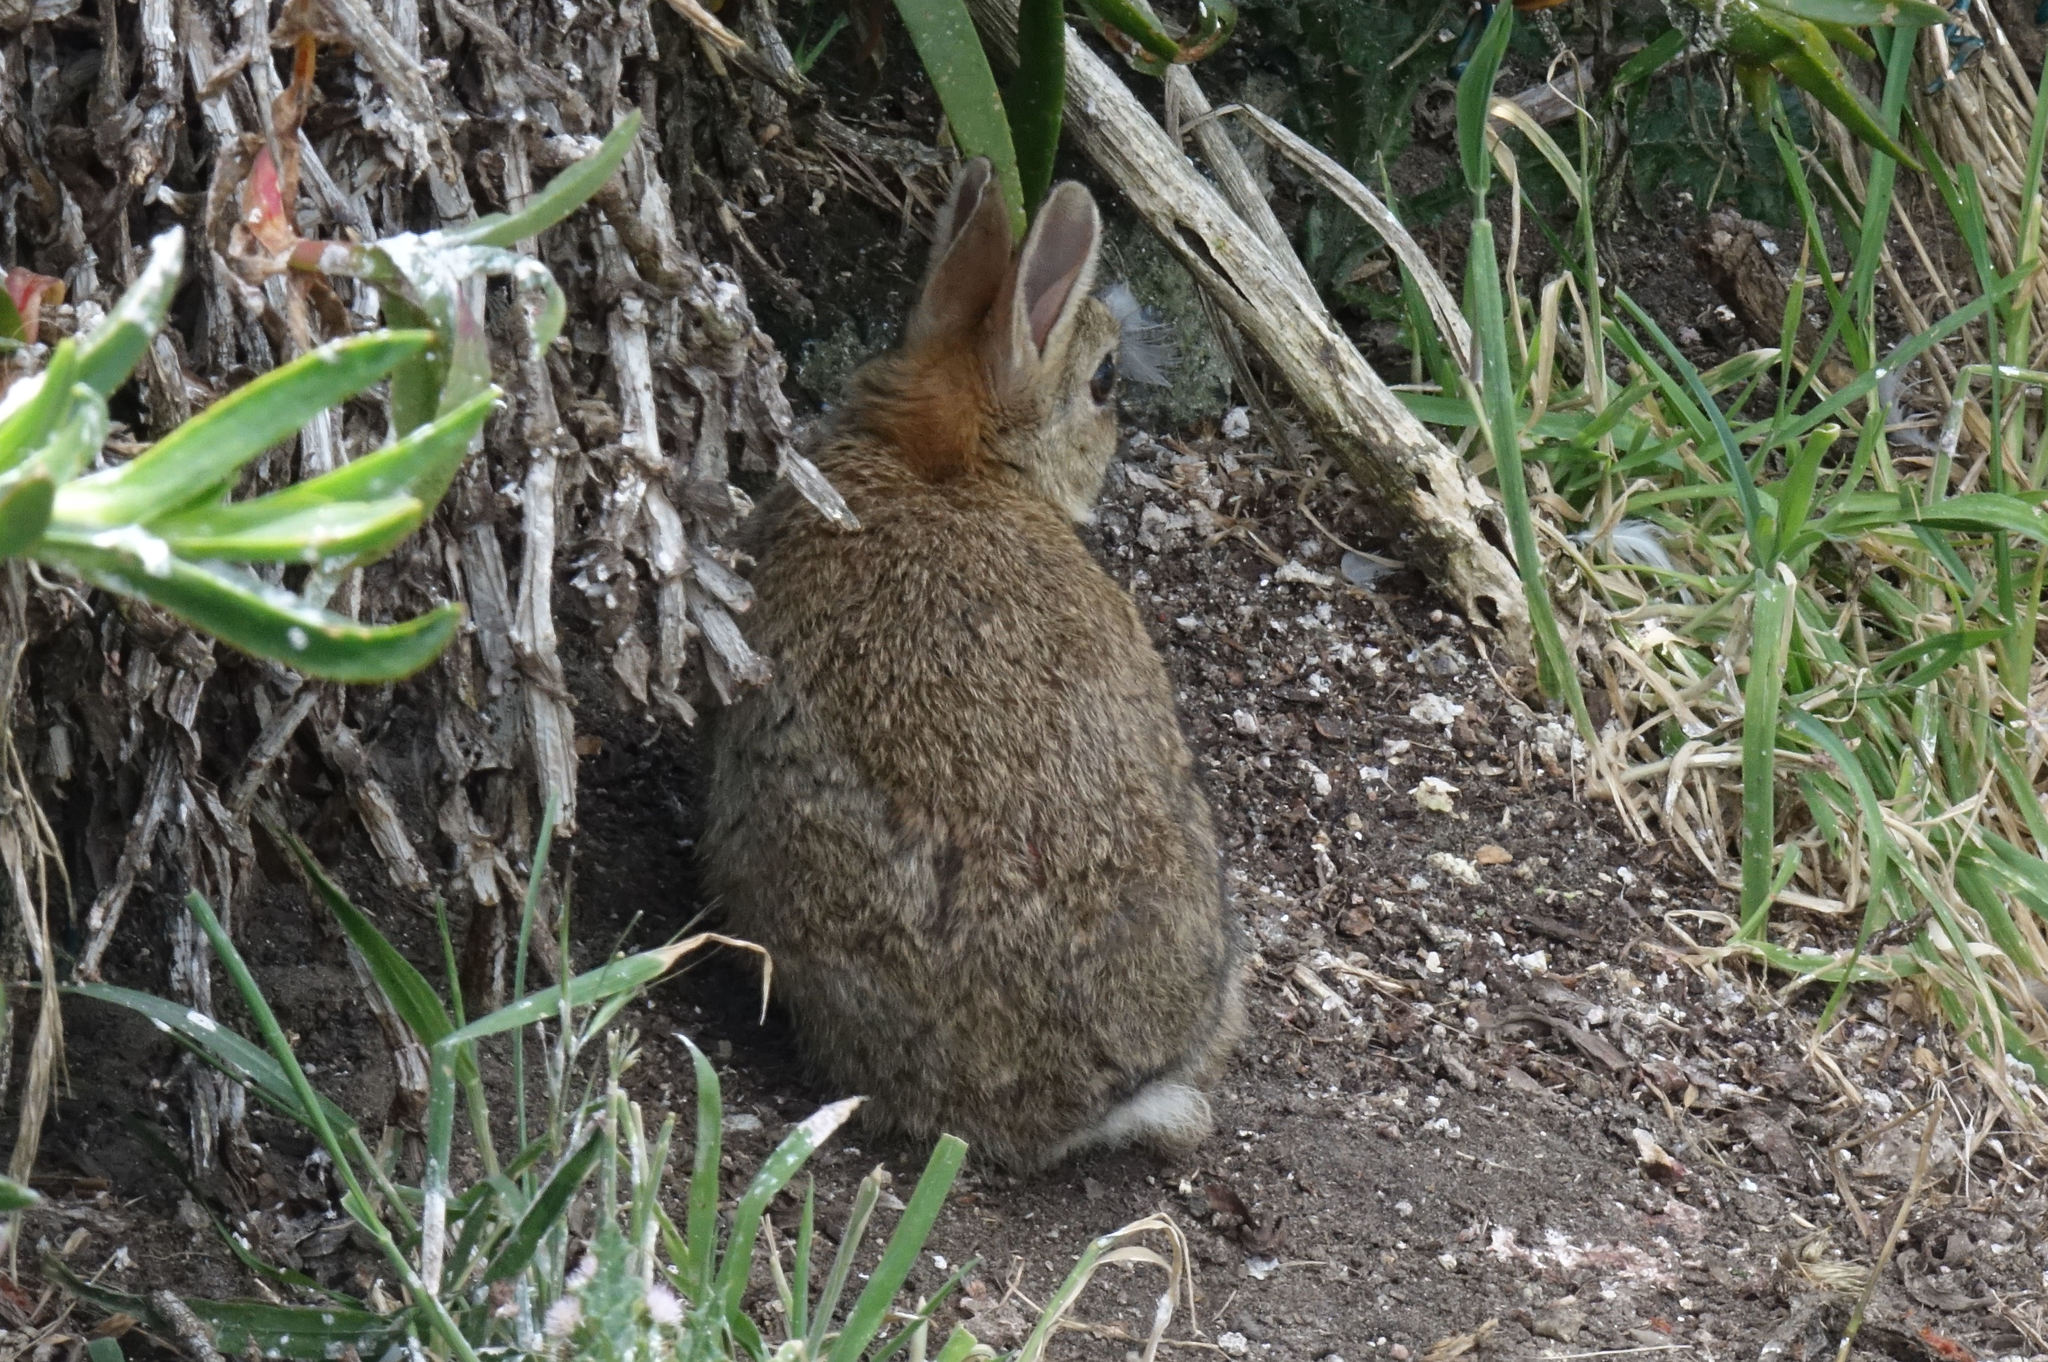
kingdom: Animalia
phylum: Chordata
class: Mammalia
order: Lagomorpha
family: Leporidae
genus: Oryctolagus
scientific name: Oryctolagus cuniculus
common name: European rabbit
